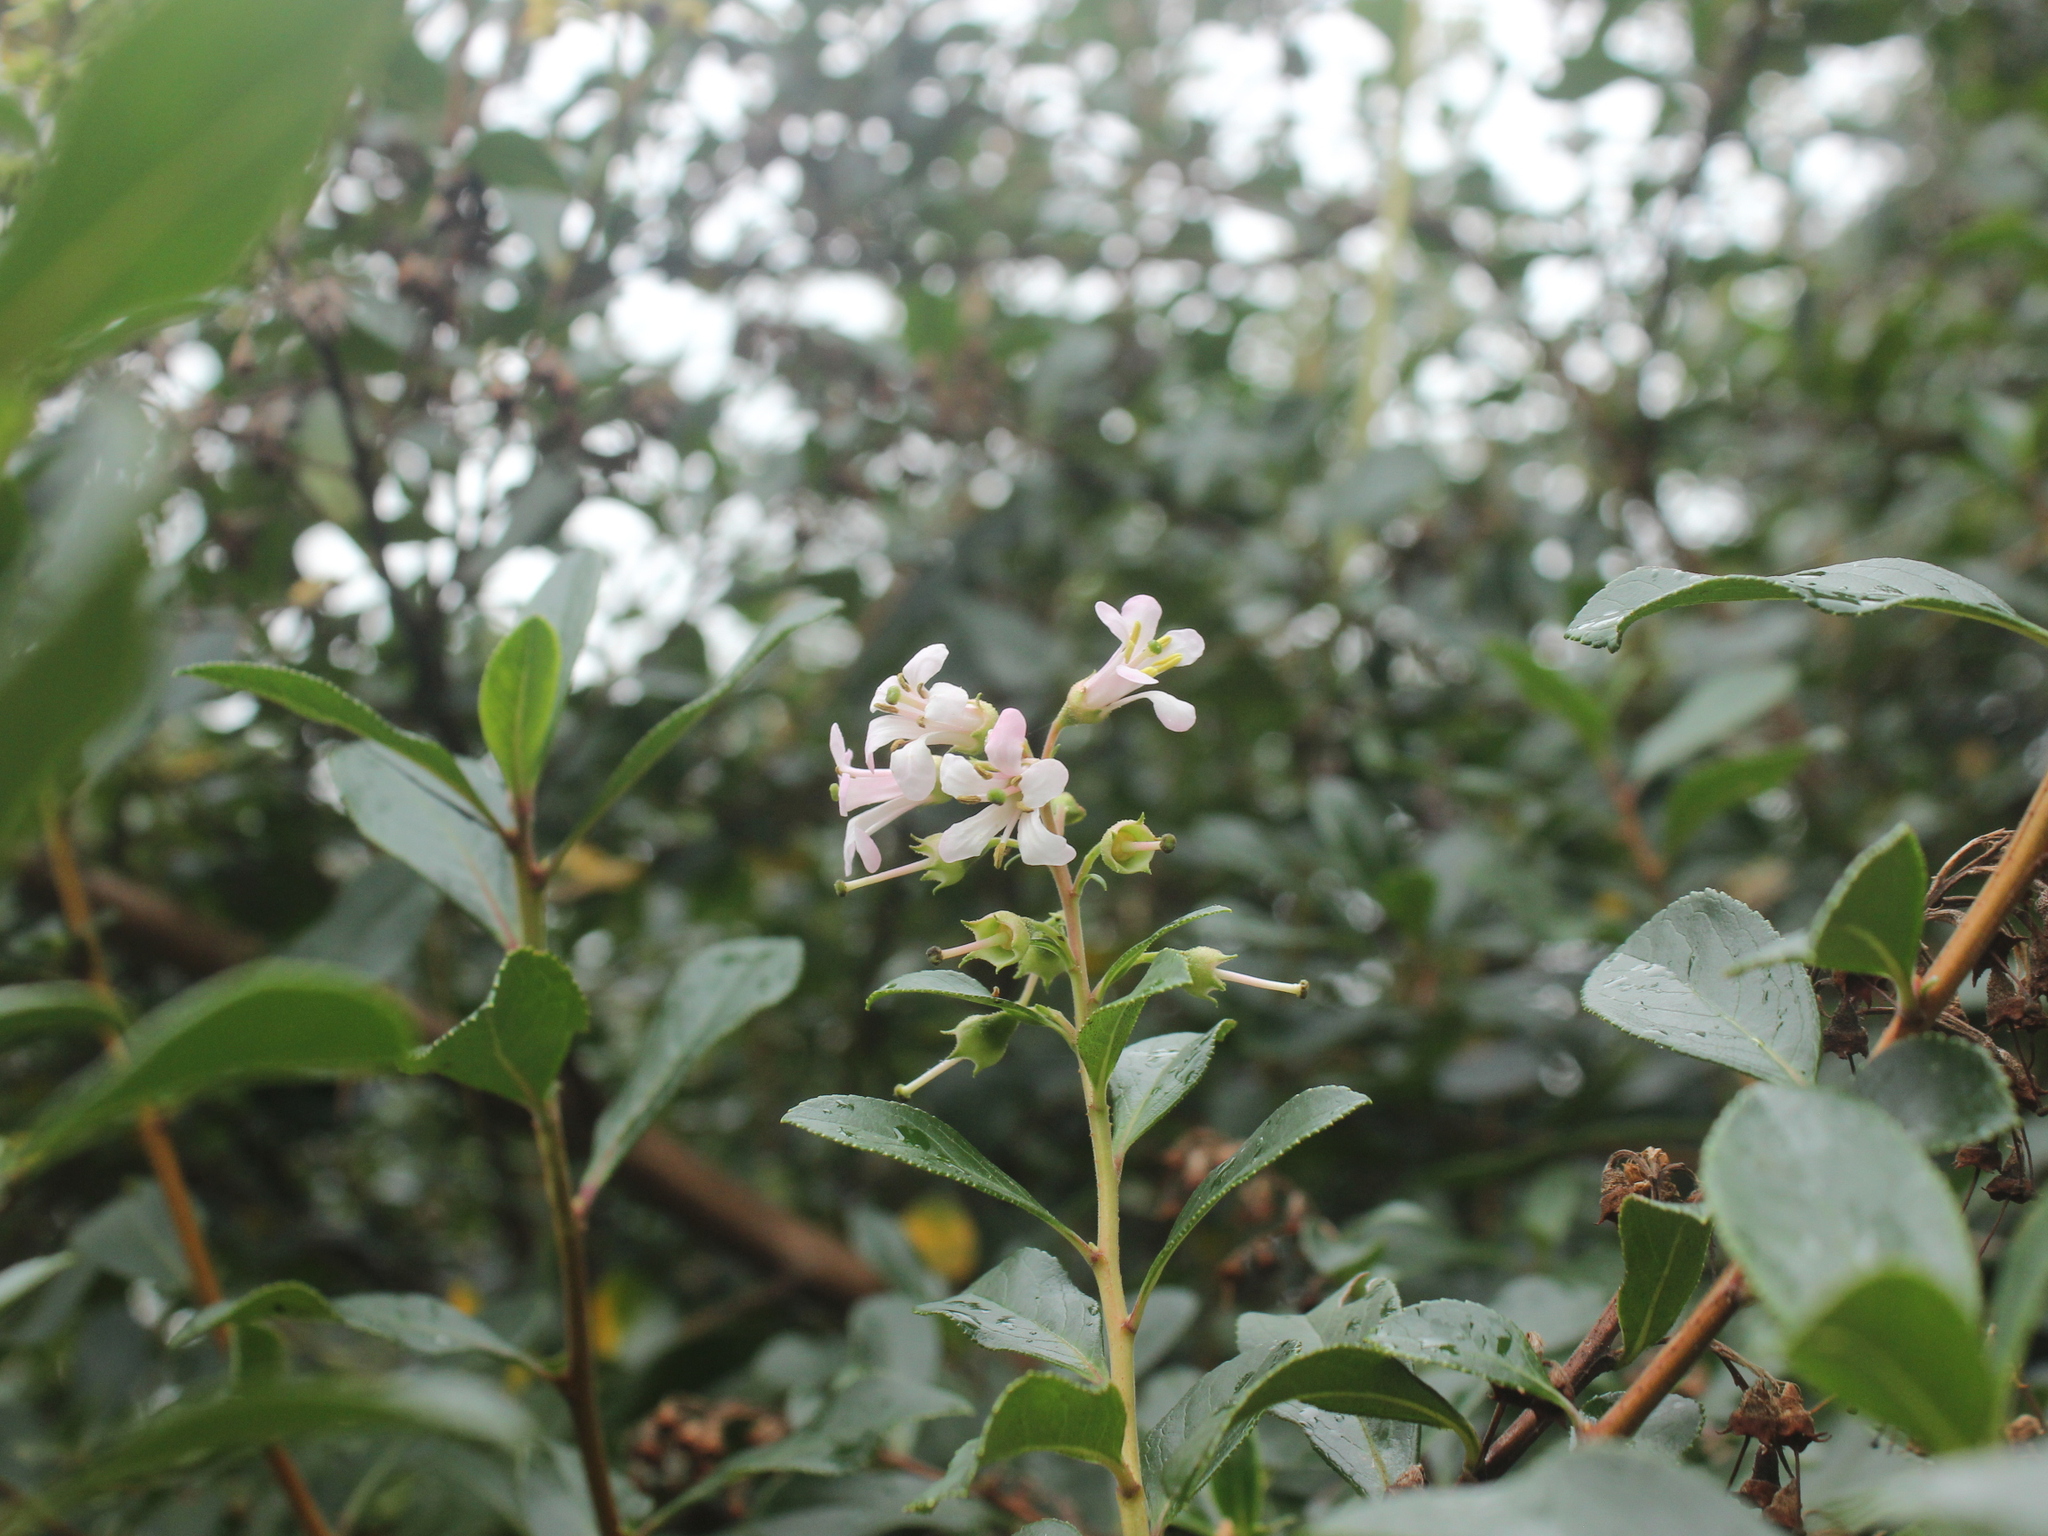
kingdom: Plantae
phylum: Tracheophyta
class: Magnoliopsida
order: Escalloniales
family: Escalloniaceae
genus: Escallonia
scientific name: Escallonia rubra
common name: Redclaws
